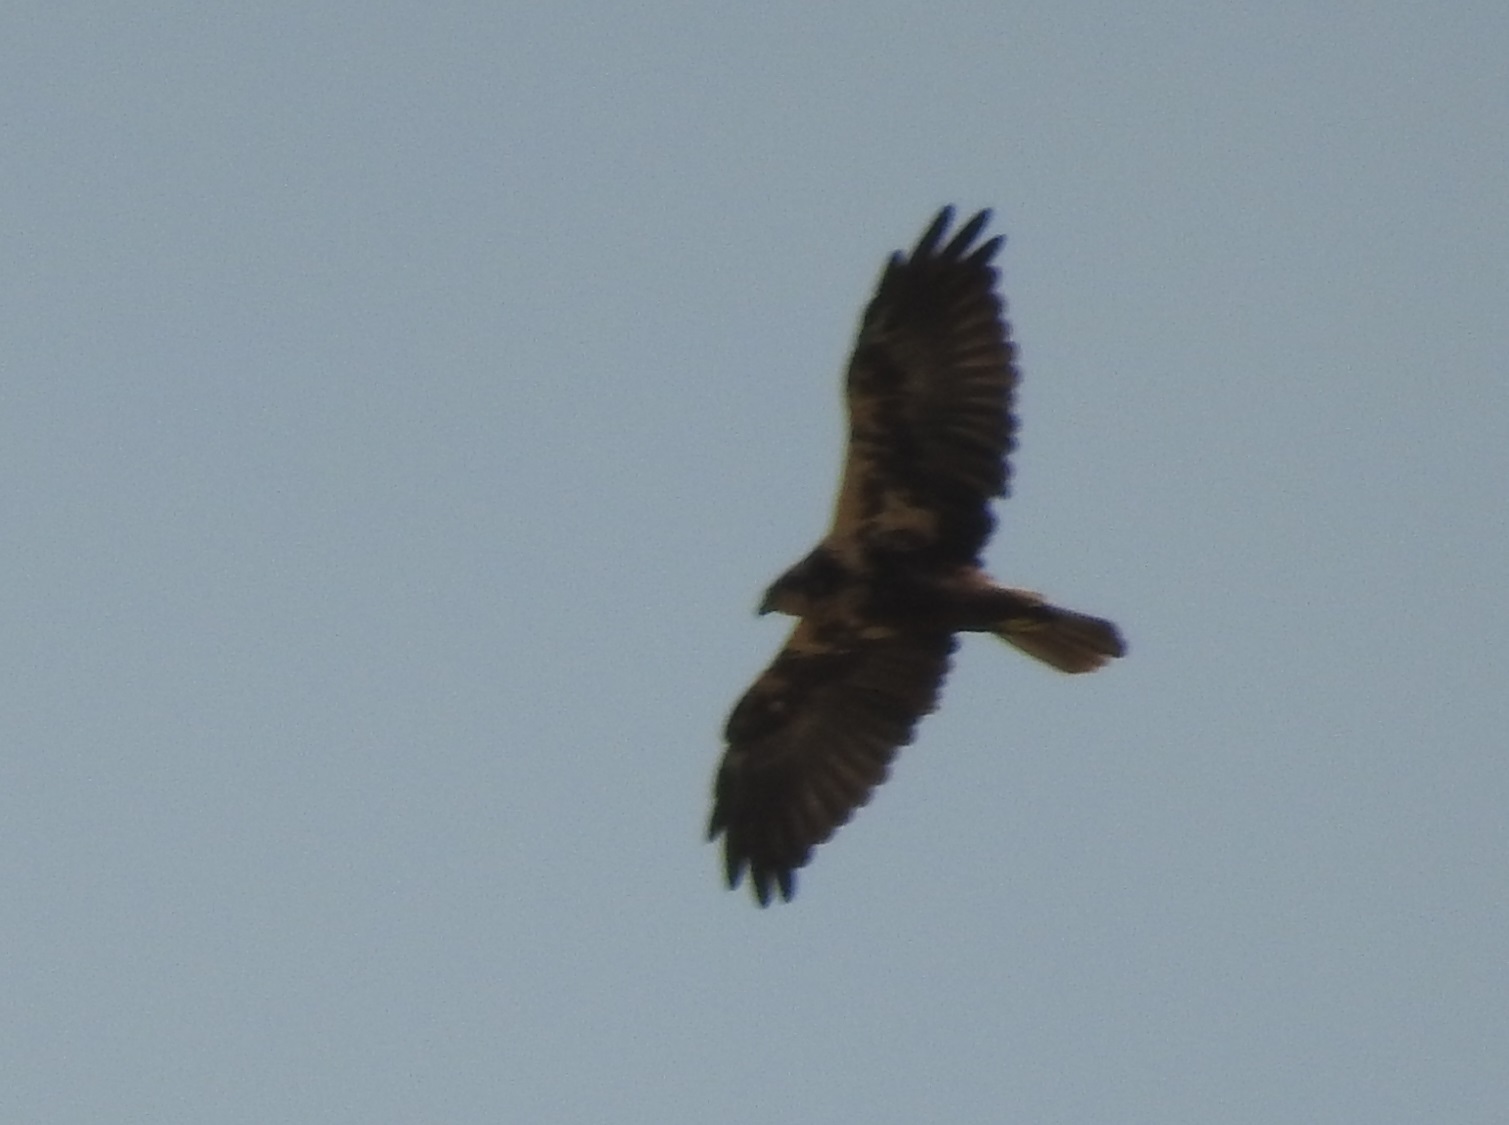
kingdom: Animalia
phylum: Chordata
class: Aves
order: Accipitriformes
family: Accipitridae
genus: Circus
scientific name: Circus aeruginosus
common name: Western marsh harrier
